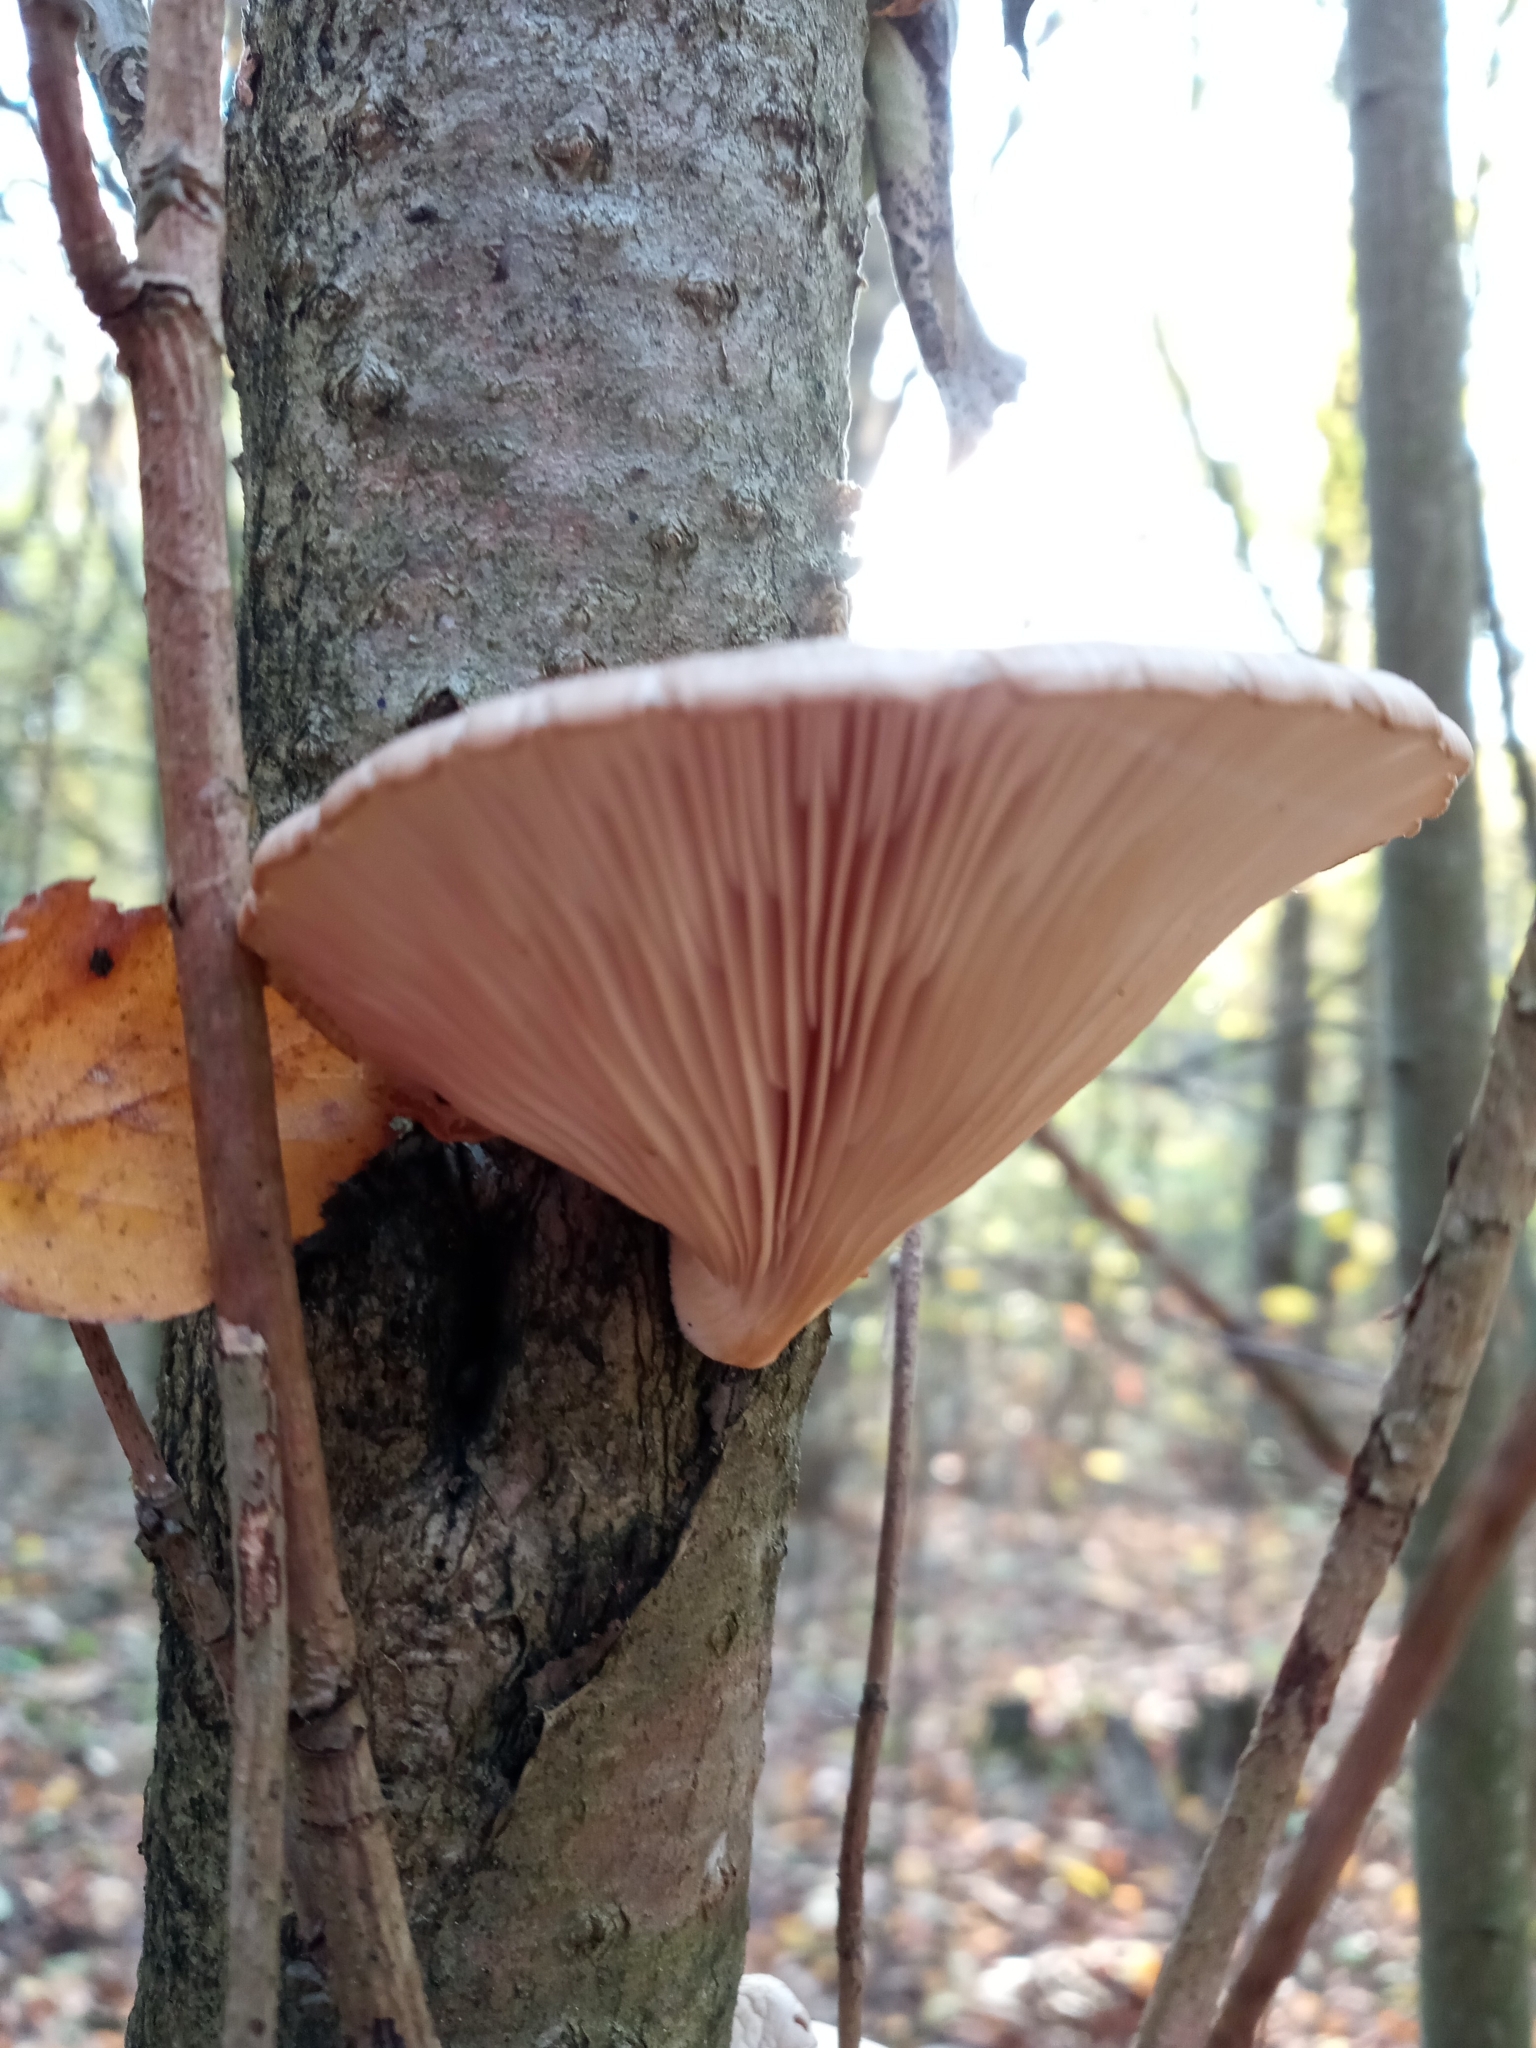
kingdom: Fungi
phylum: Basidiomycota
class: Agaricomycetes
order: Agaricales
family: Pleurotaceae
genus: Pleurotus
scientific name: Pleurotus ostreatus
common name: Oyster mushroom
